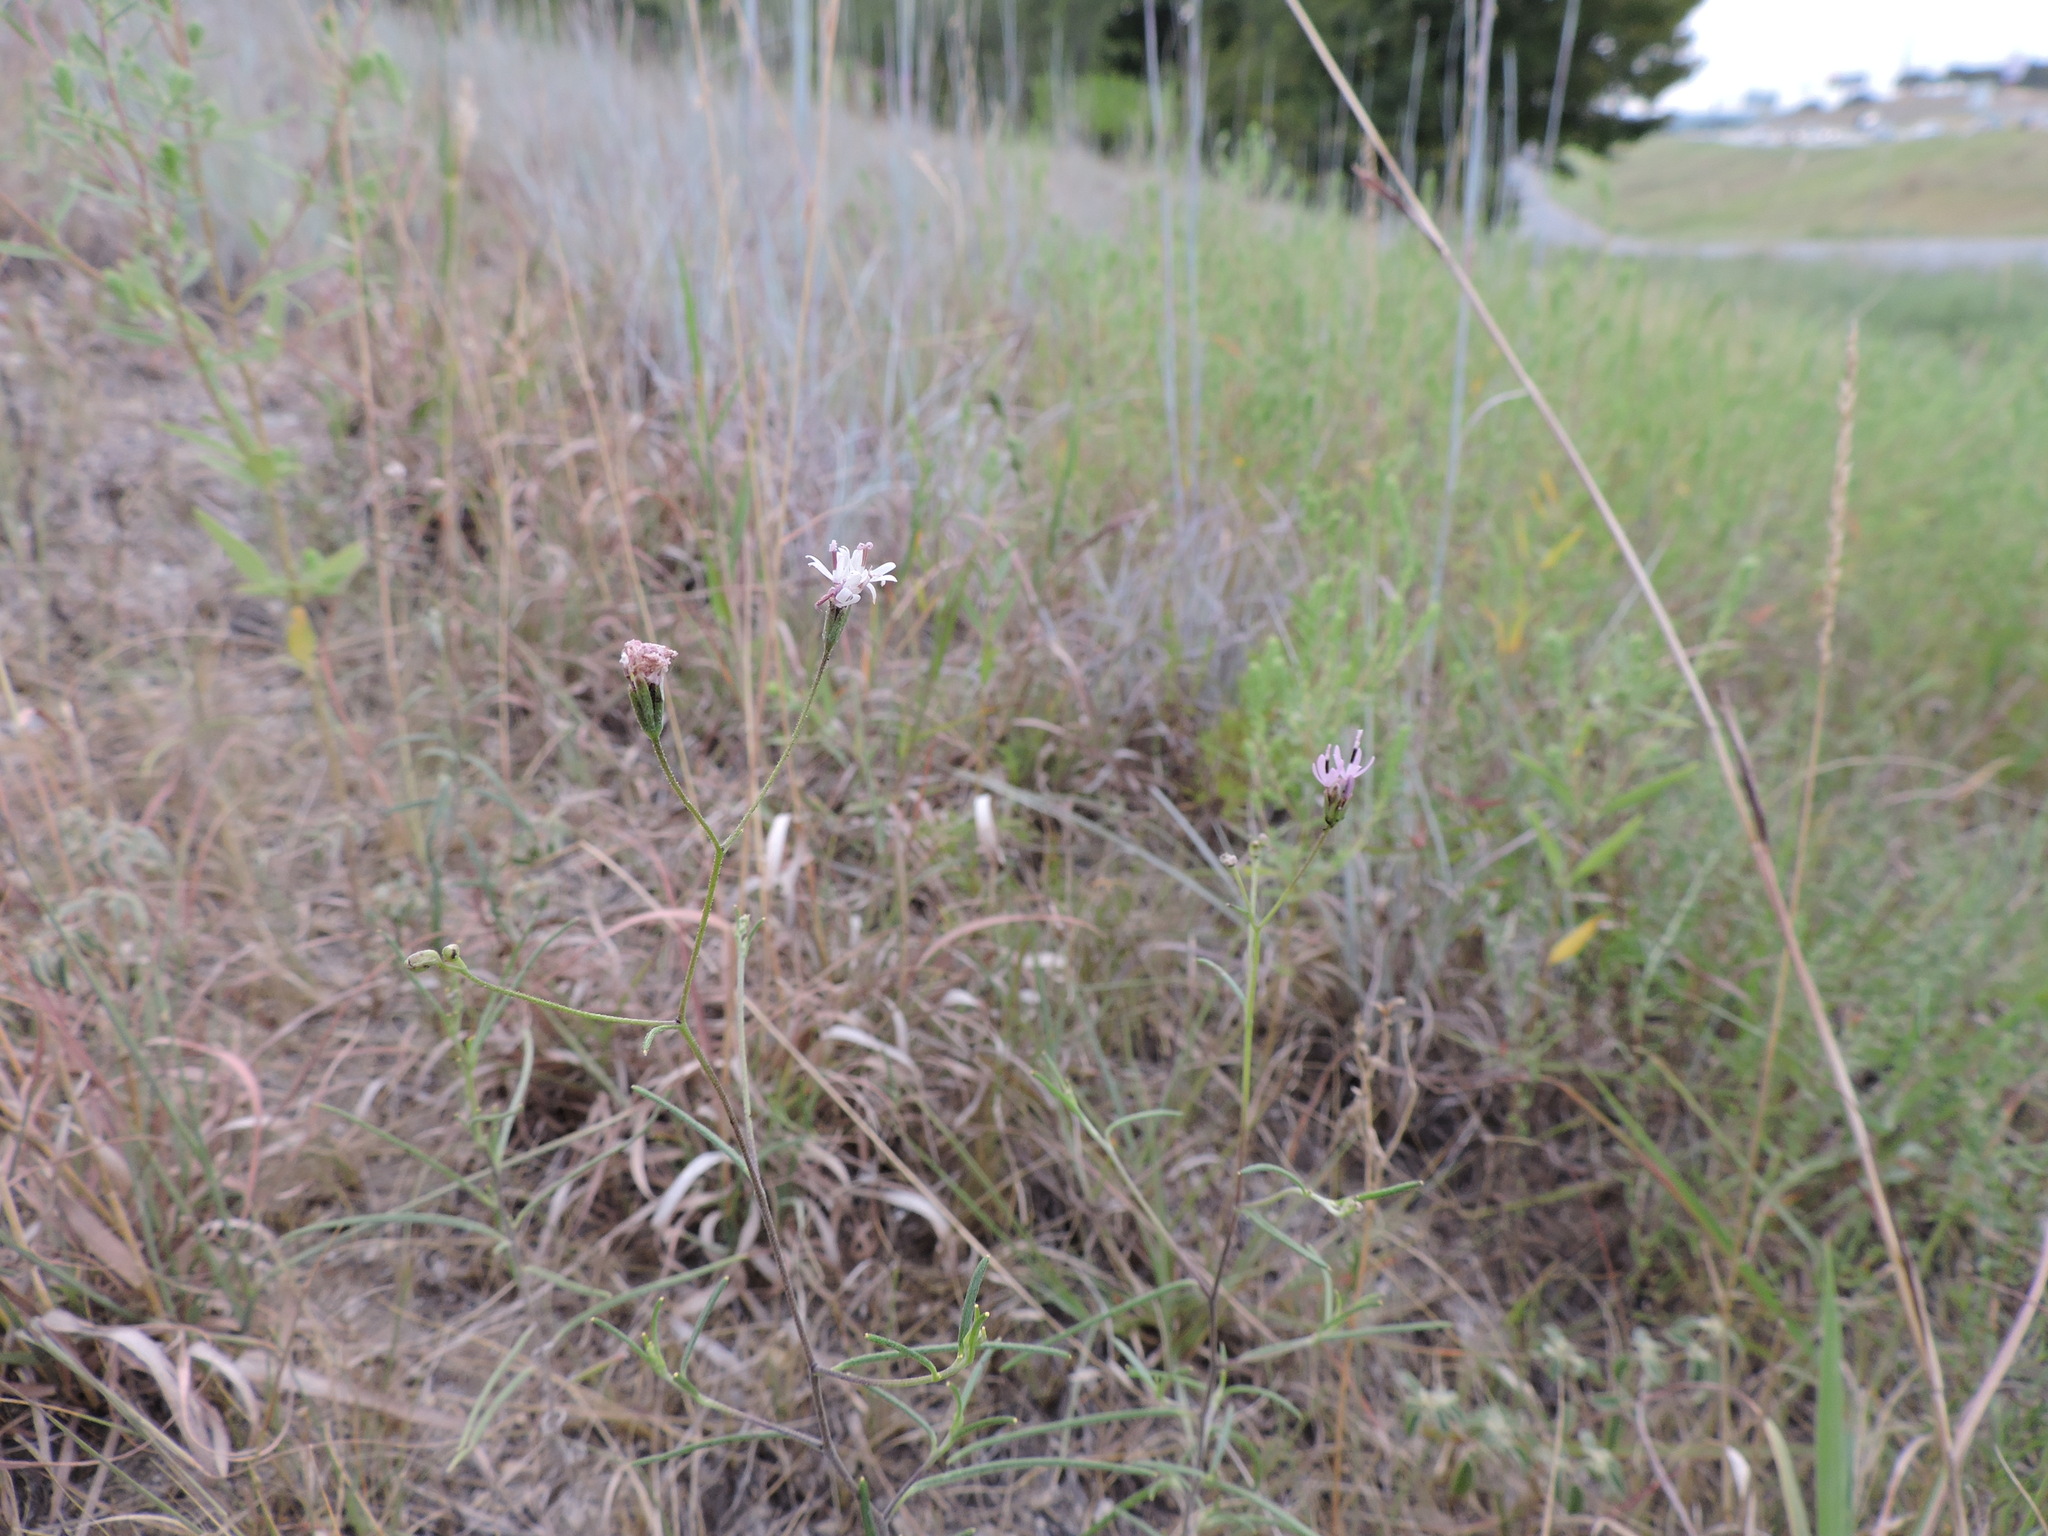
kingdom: Plantae
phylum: Tracheophyta
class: Magnoliopsida
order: Asterales
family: Asteraceae
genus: Palafoxia
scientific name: Palafoxia callosa
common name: Small palafox
